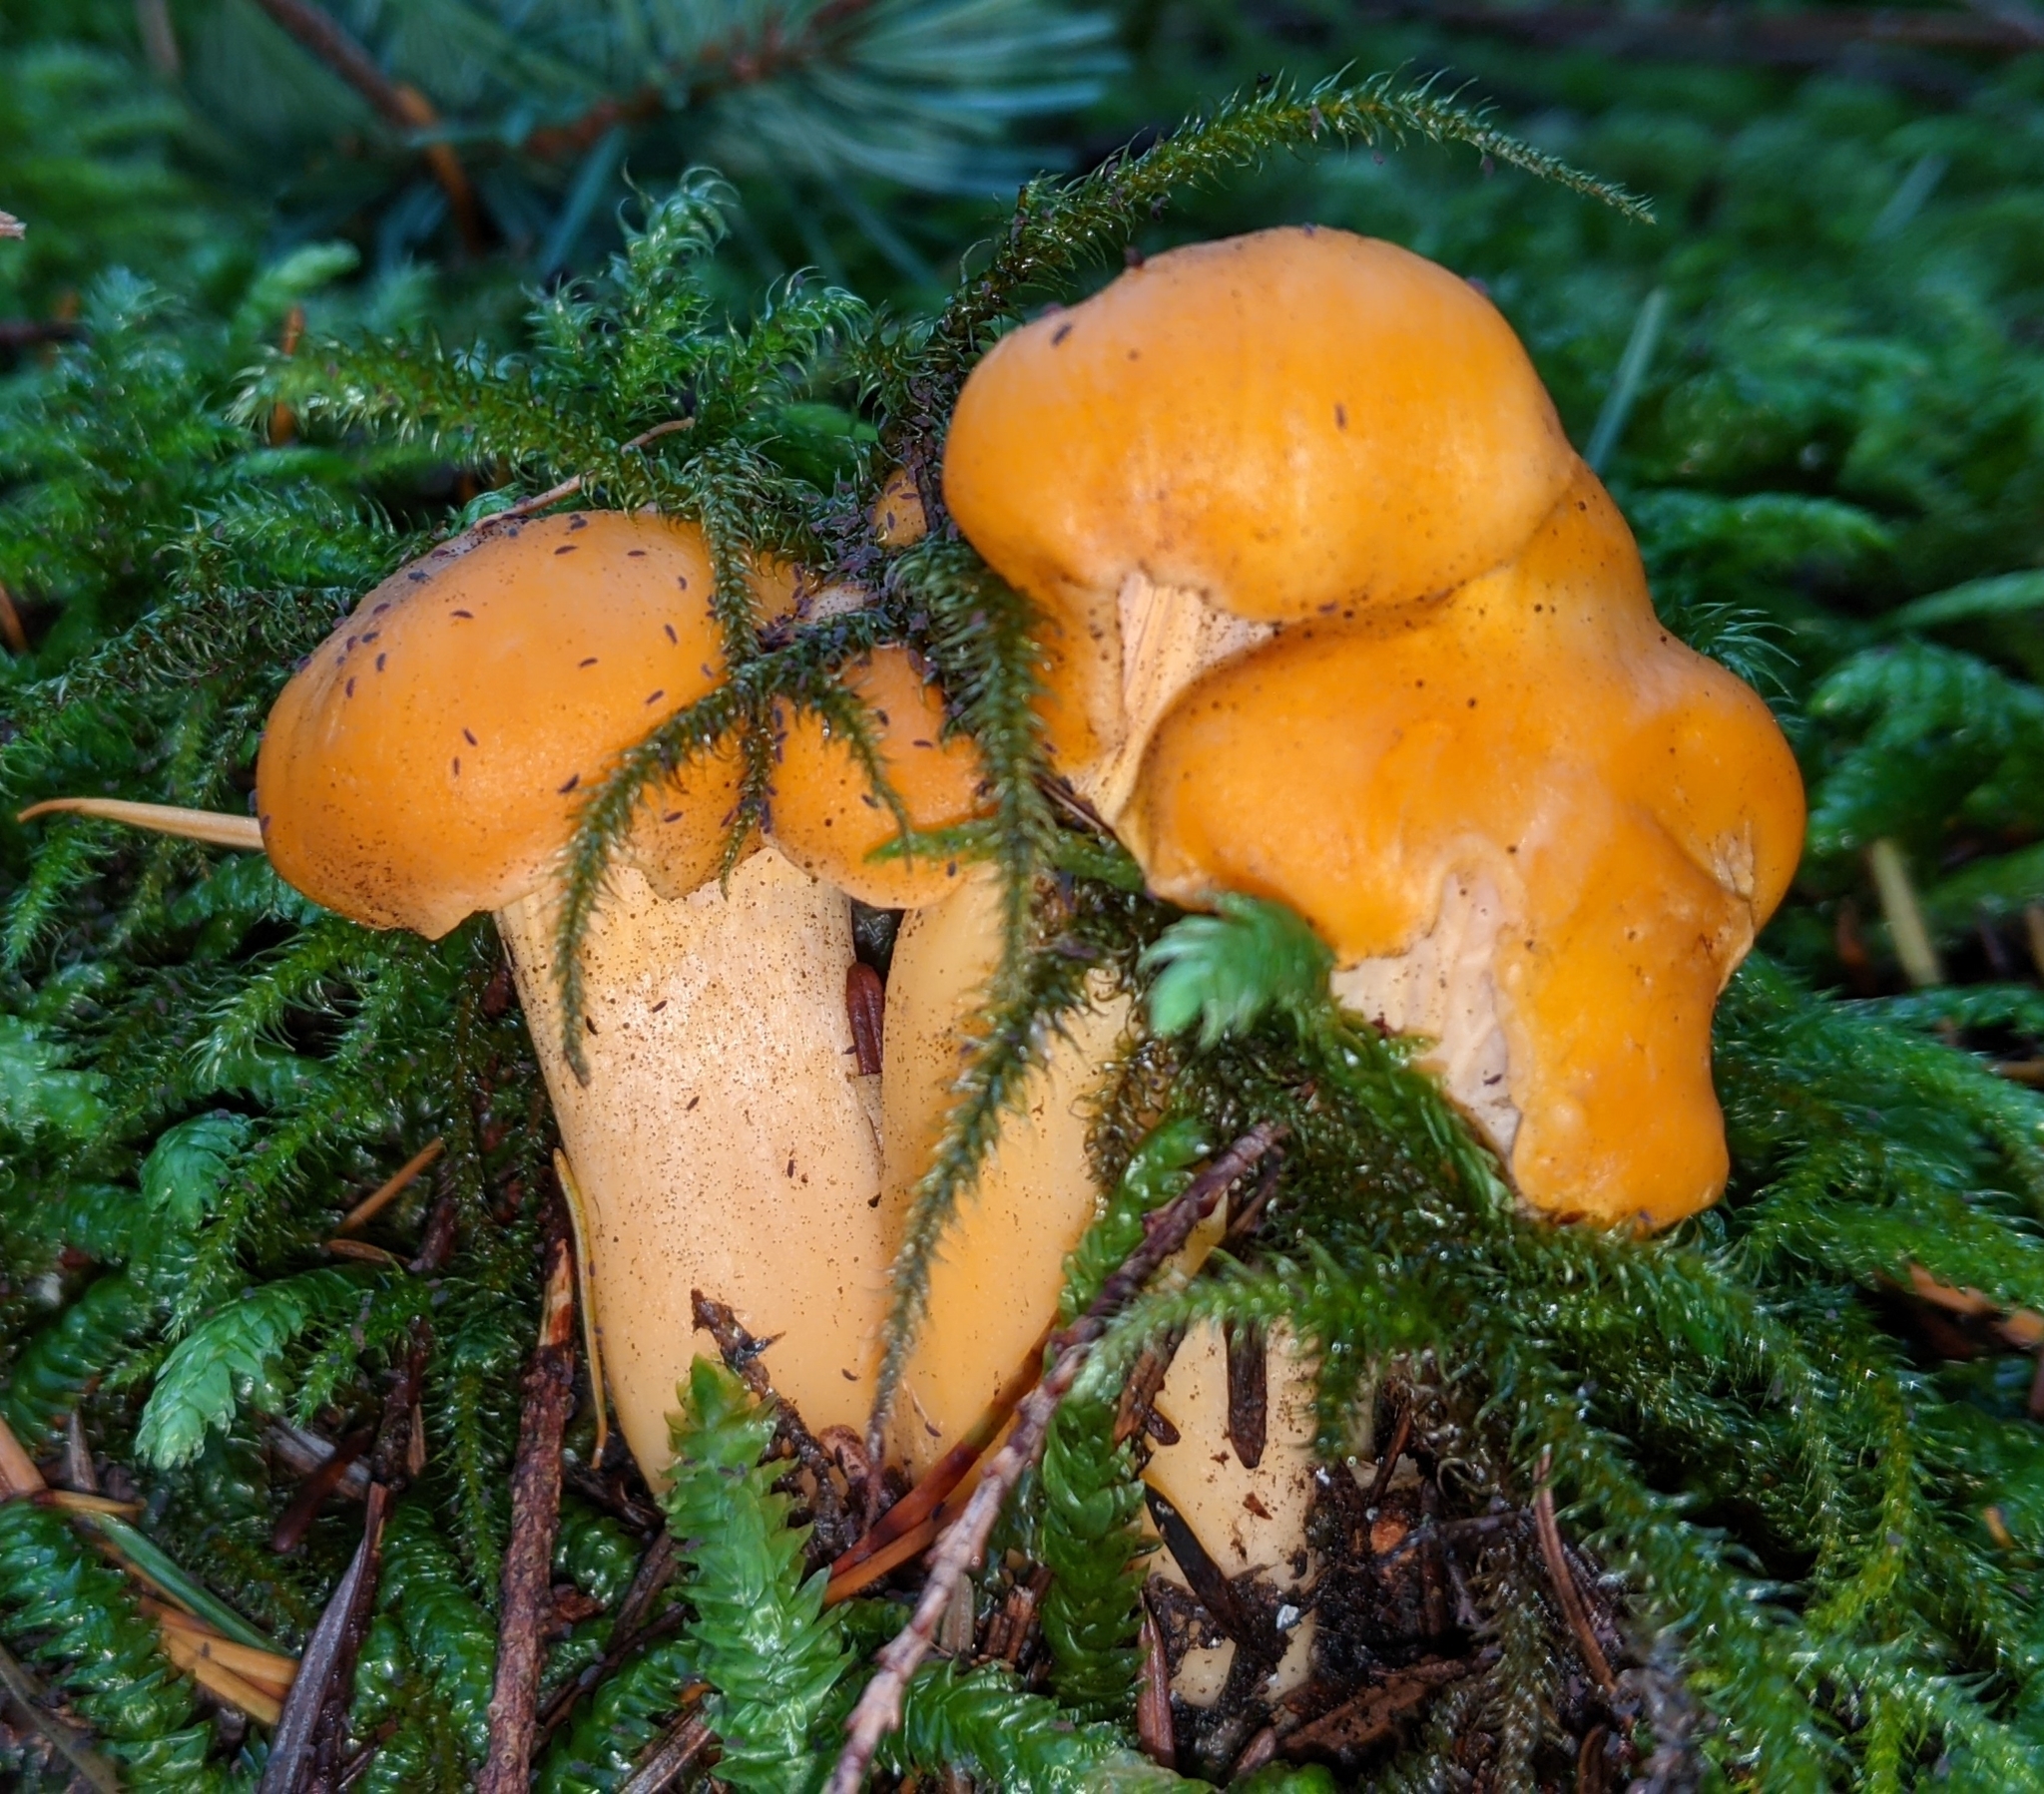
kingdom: Fungi
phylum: Basidiomycota
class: Agaricomycetes
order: Cantharellales
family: Hydnaceae
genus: Cantharellus
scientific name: Cantharellus formosus
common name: Pacific golden chanterelle
